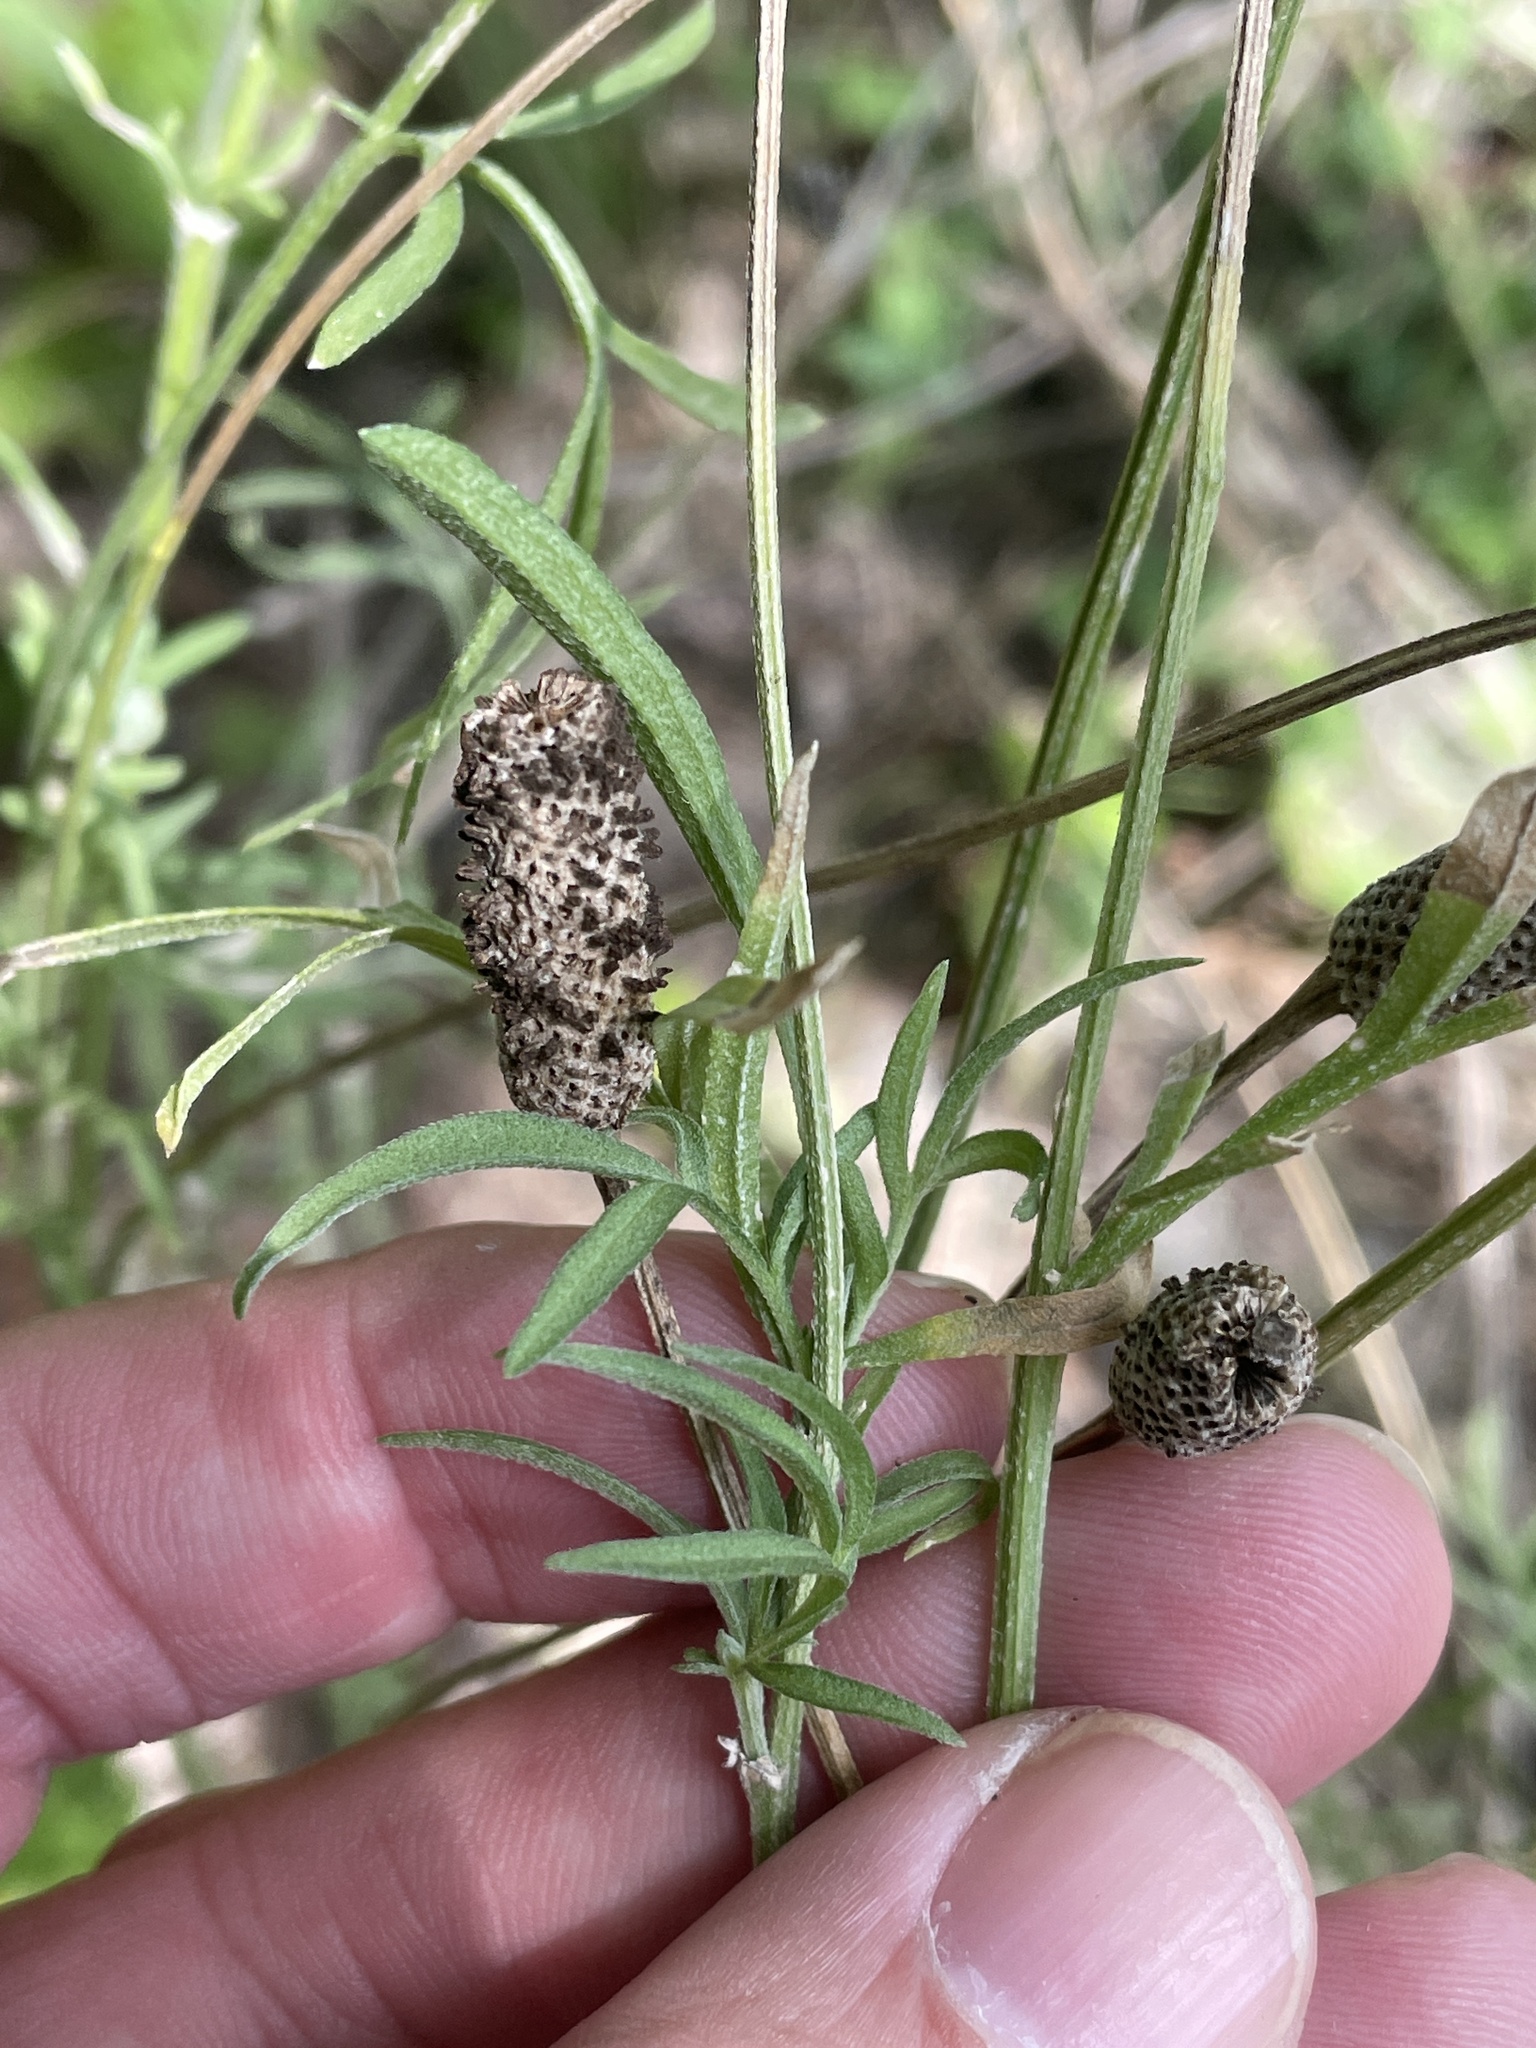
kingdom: Plantae
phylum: Tracheophyta
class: Magnoliopsida
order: Asterales
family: Asteraceae
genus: Ratibida
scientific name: Ratibida columnifera
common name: Prairie coneflower
